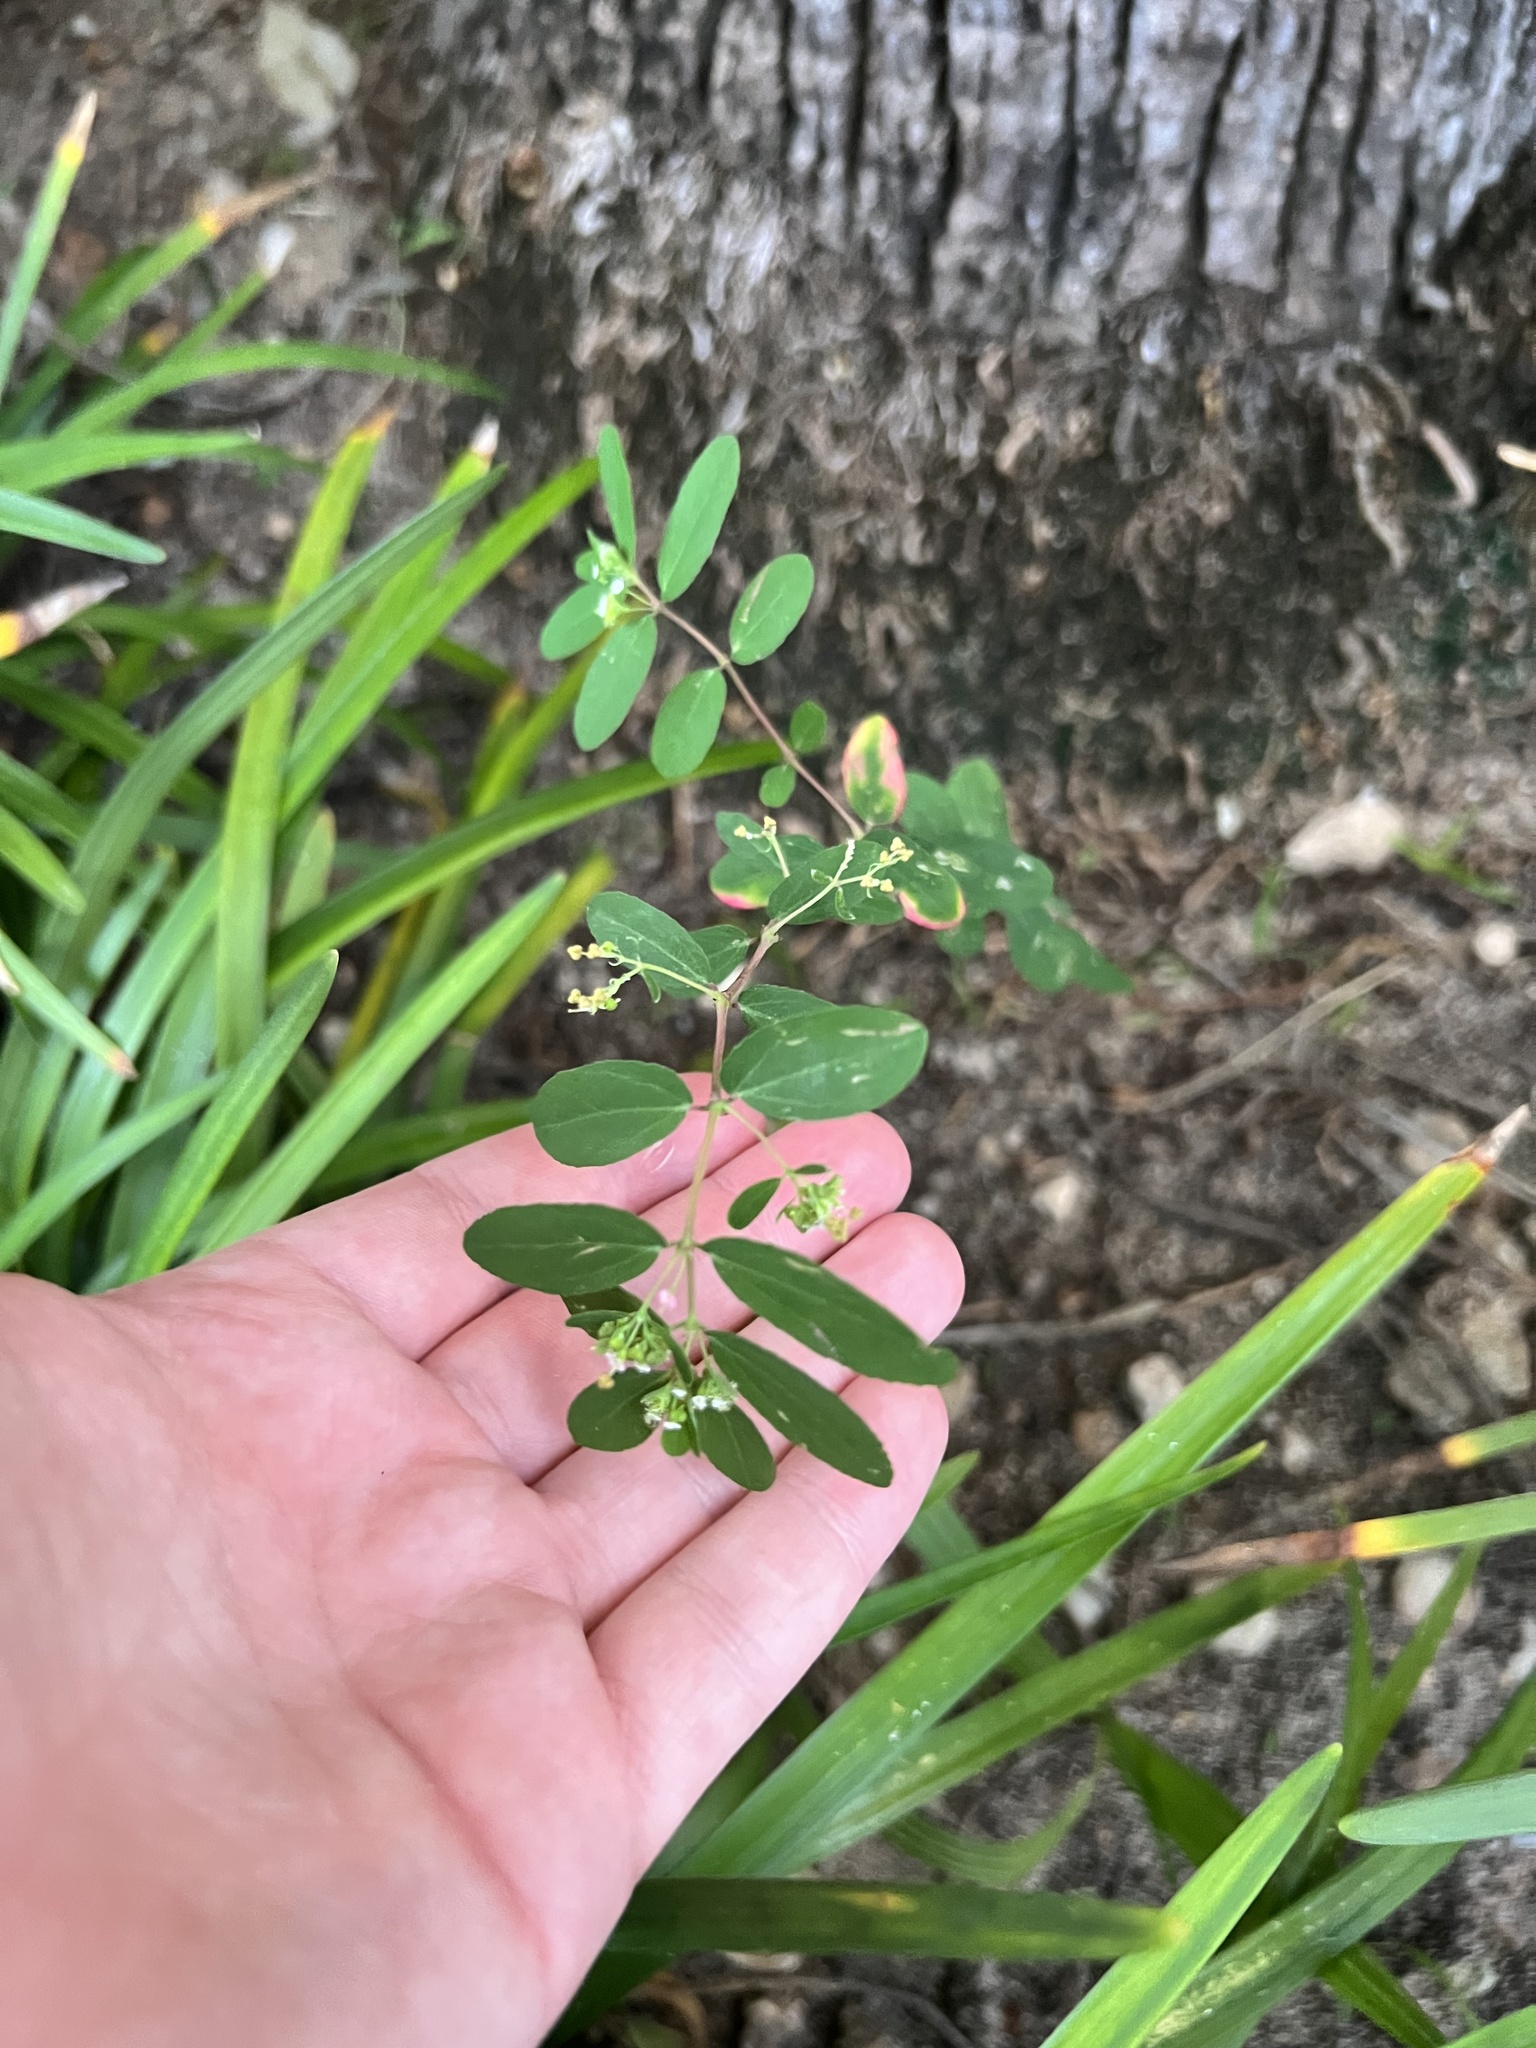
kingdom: Plantae
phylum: Tracheophyta
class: Magnoliopsida
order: Malpighiales
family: Euphorbiaceae
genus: Euphorbia
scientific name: Euphorbia hypericifolia
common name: Graceful sandmat
